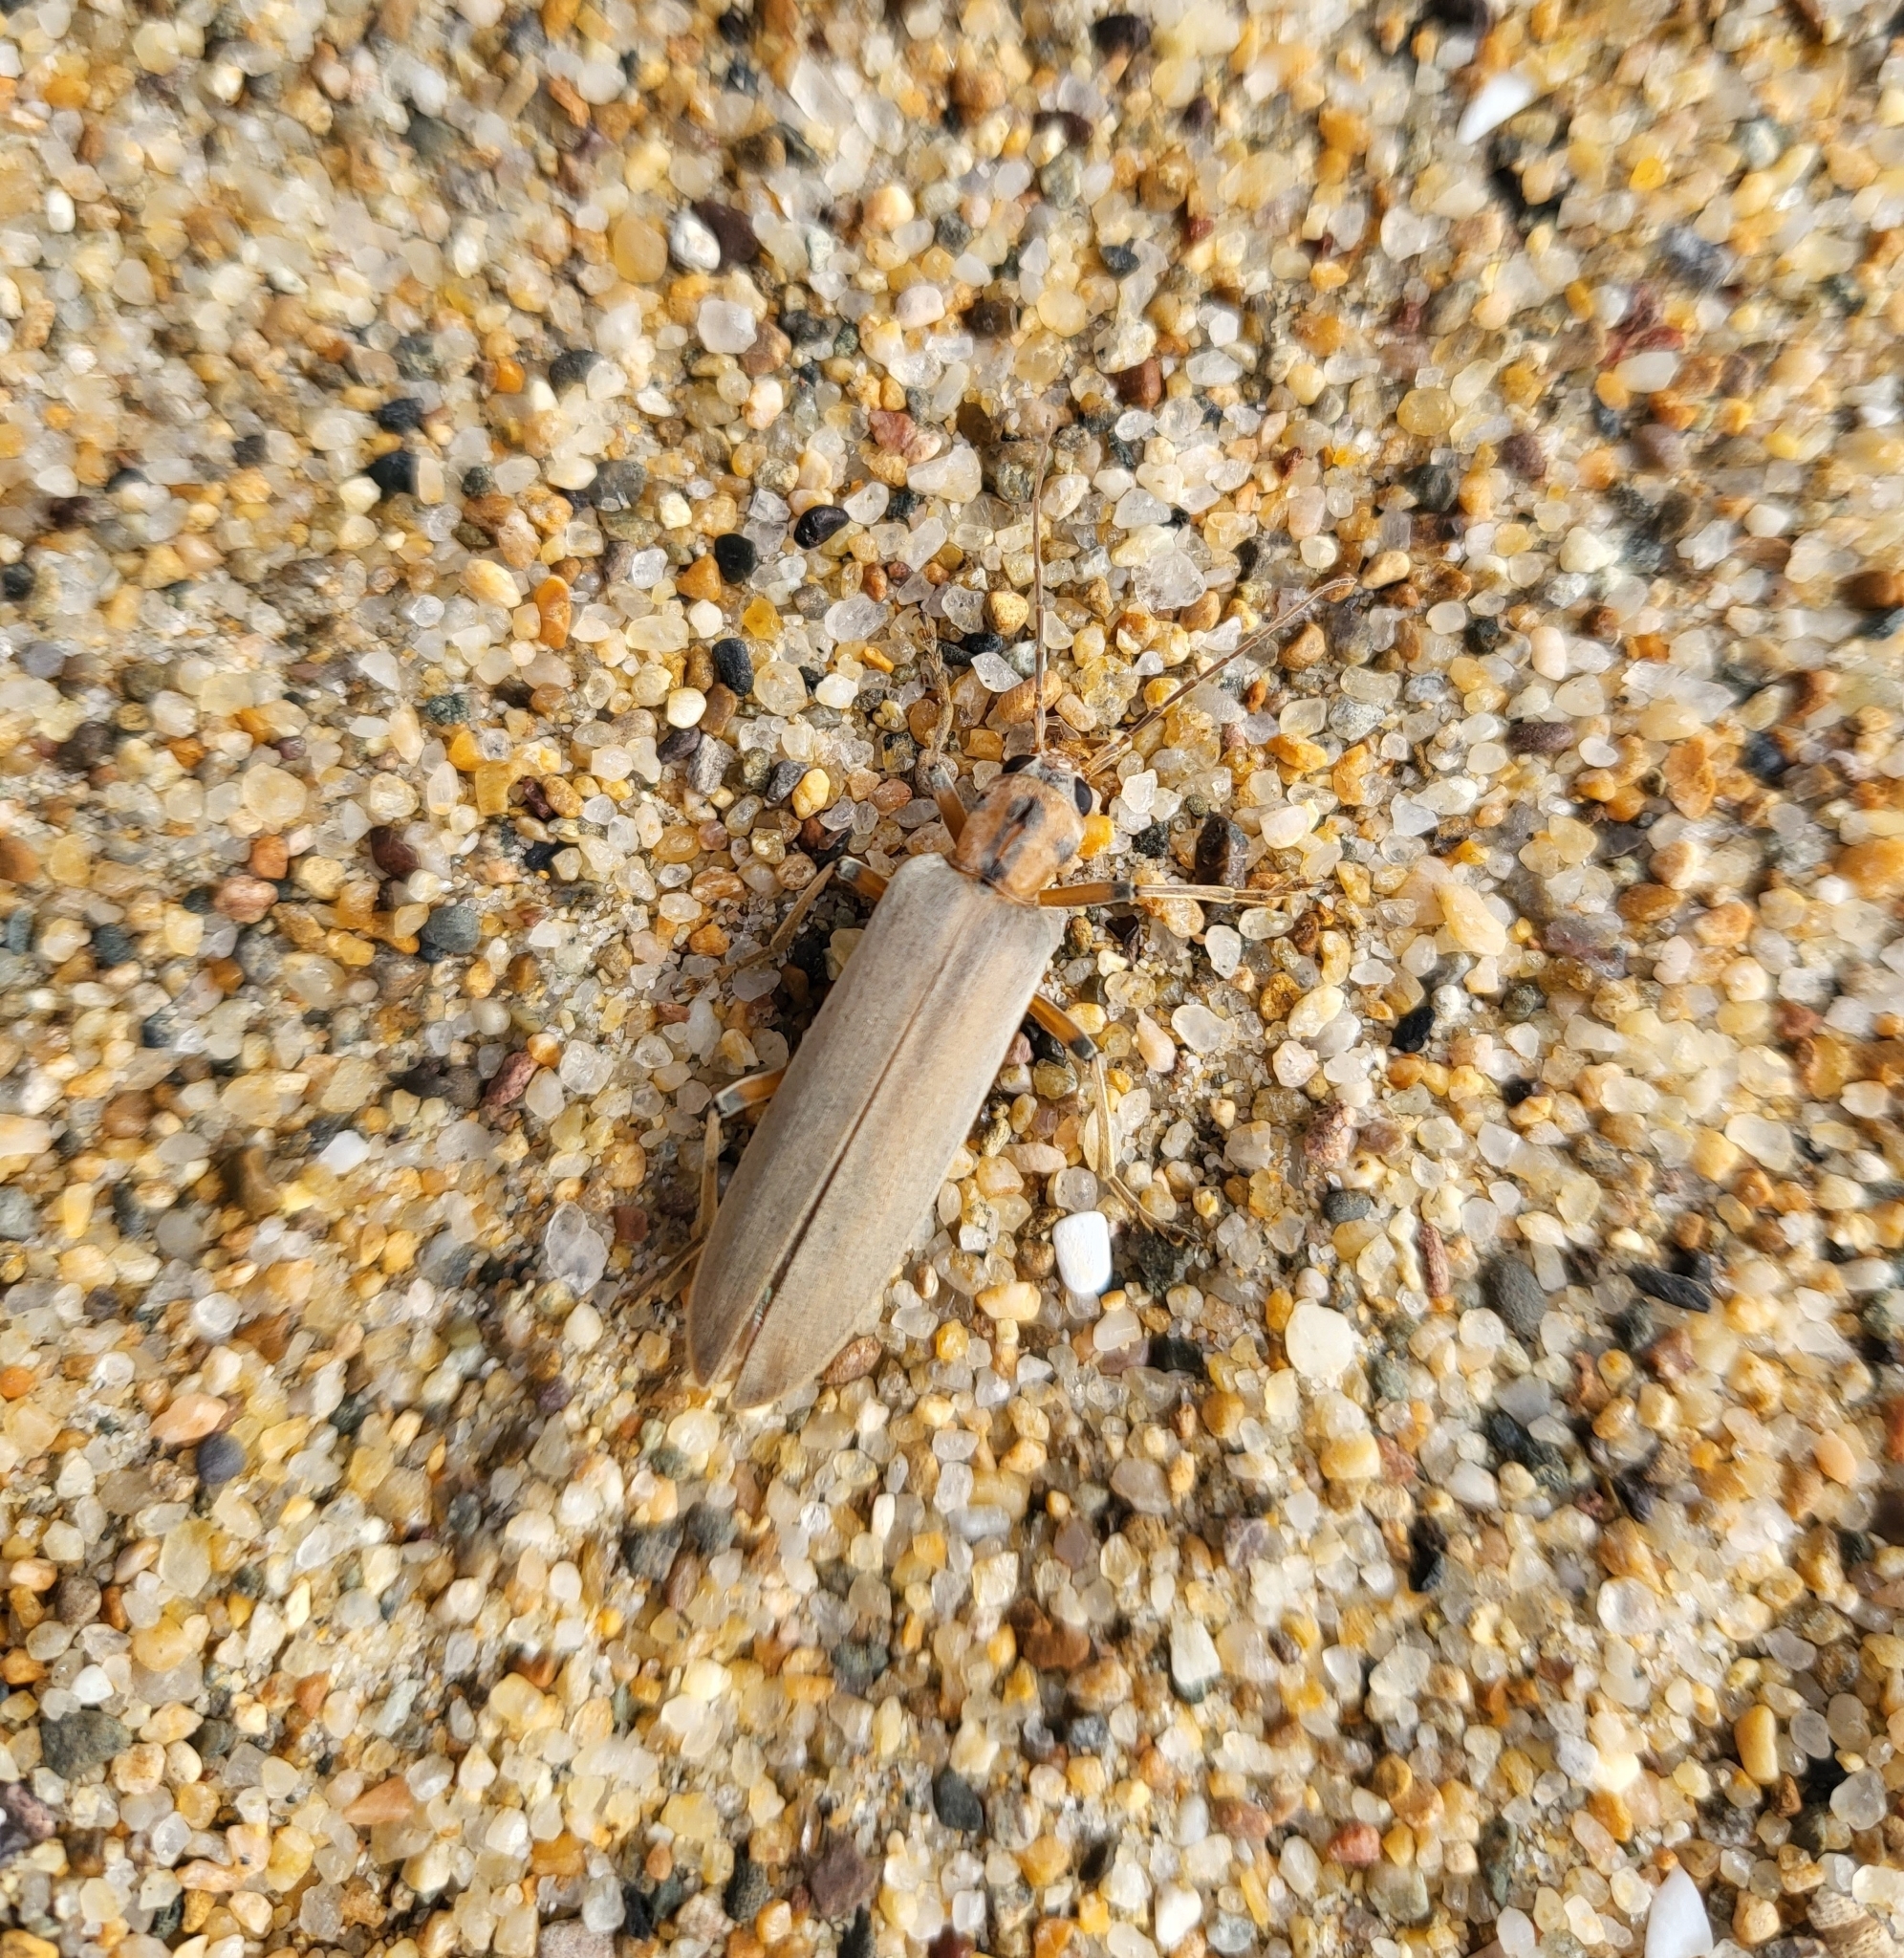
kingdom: Animalia
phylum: Arthropoda
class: Insecta
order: Coleoptera
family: Oedemeridae
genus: Copidita
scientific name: Copidita quadrimaculata
